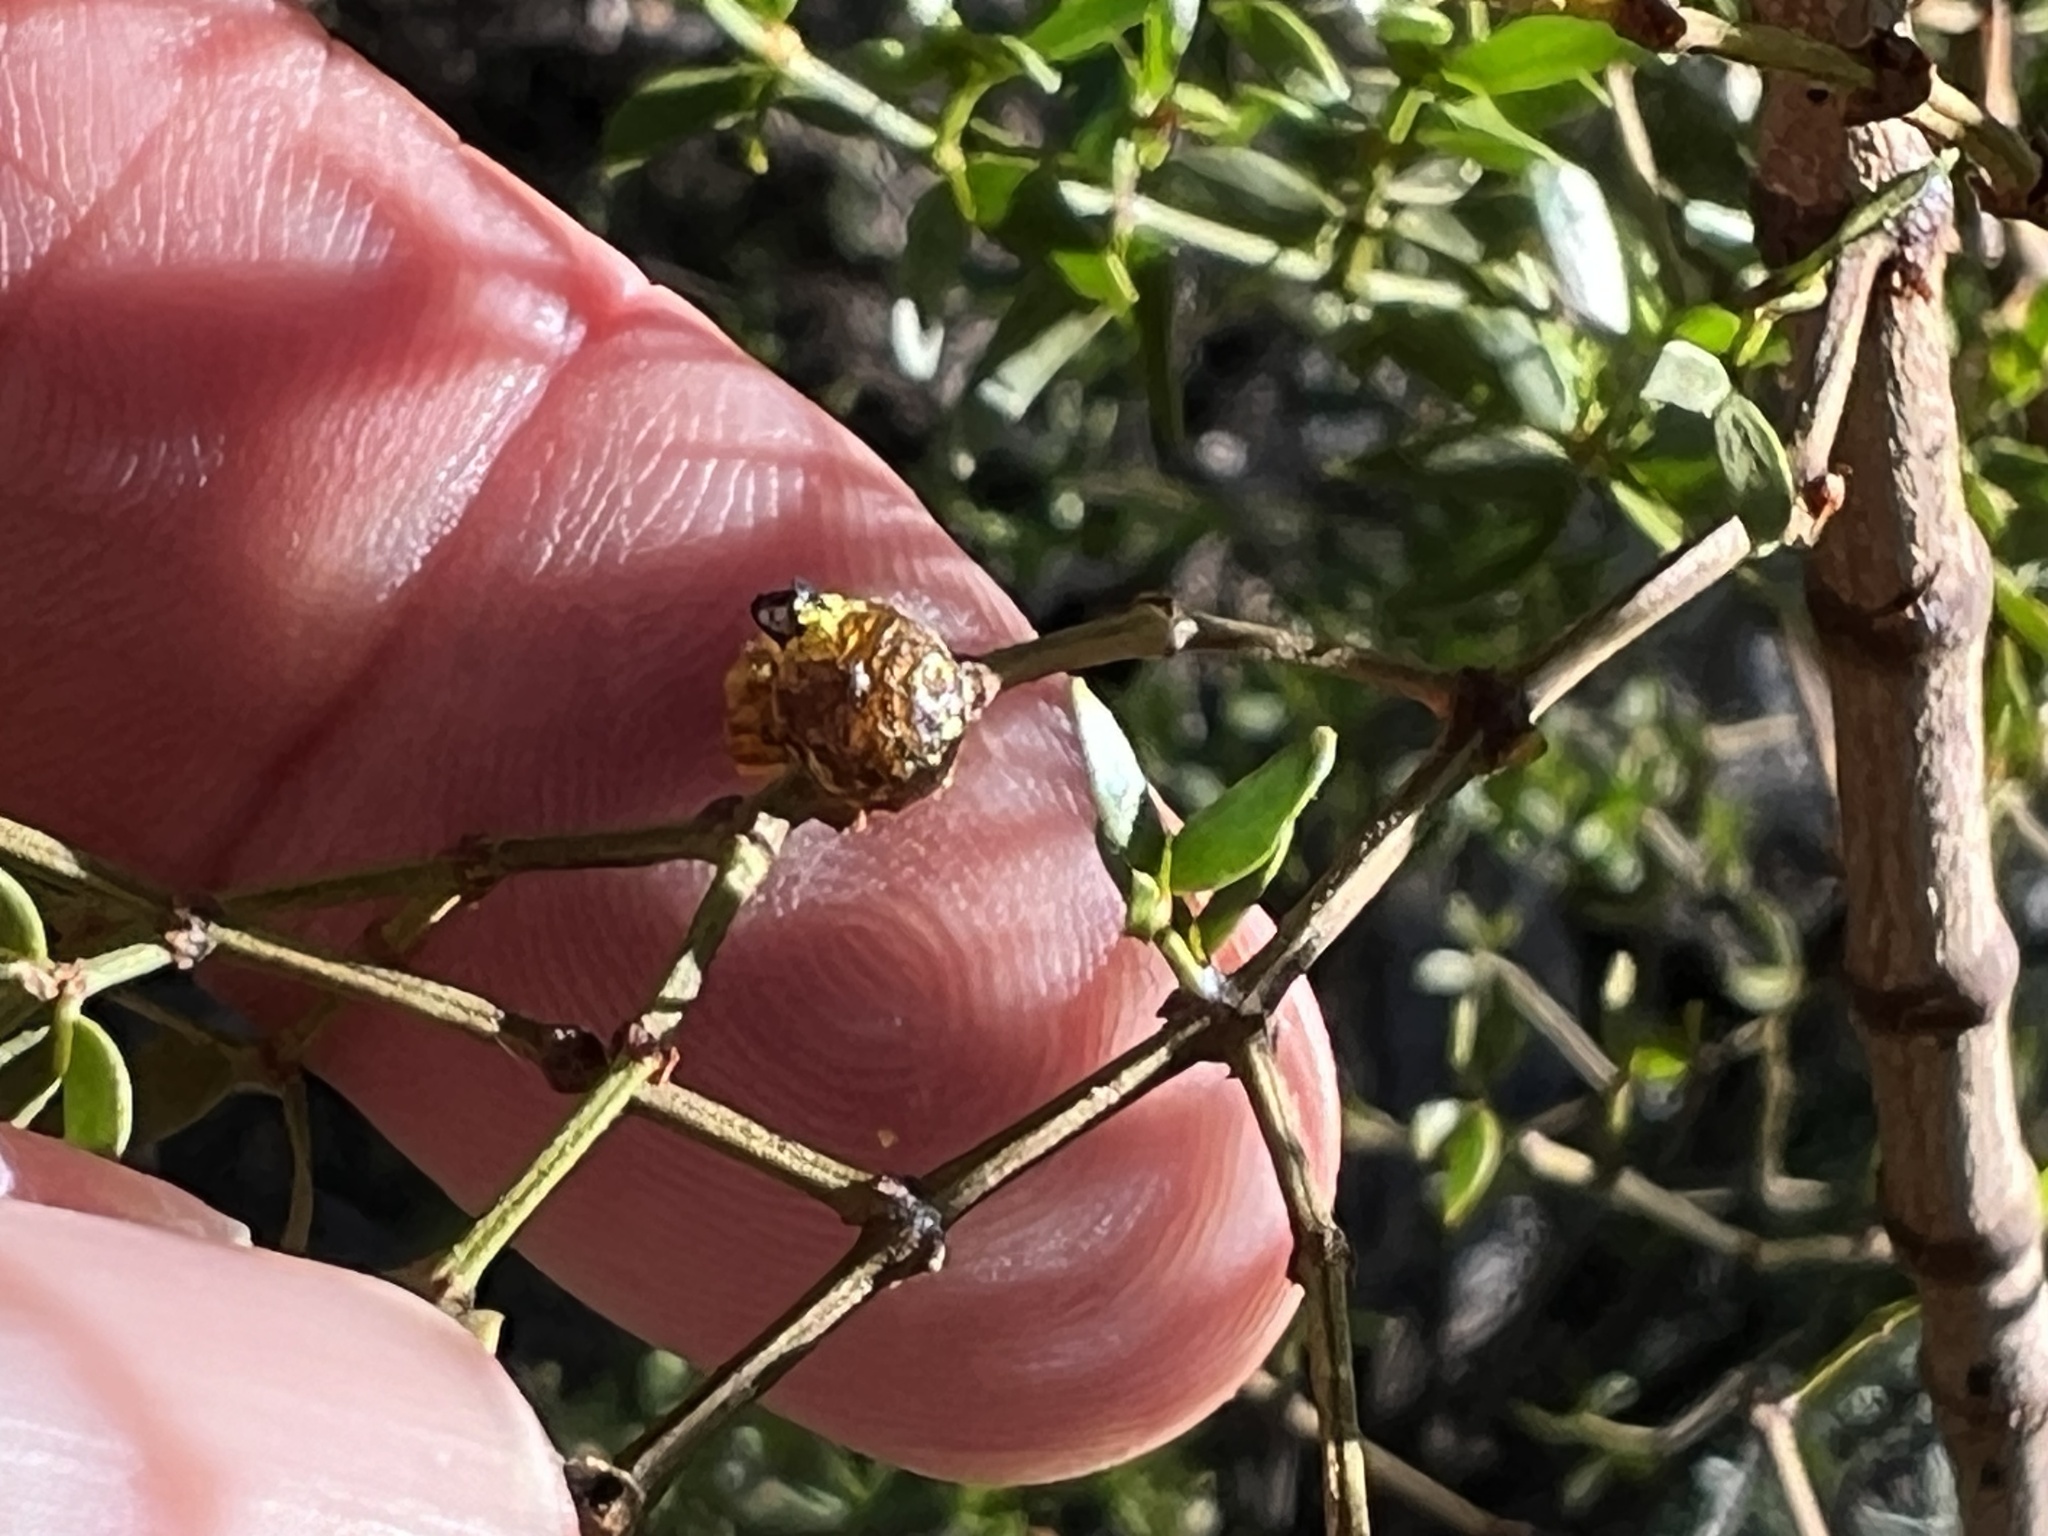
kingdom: Animalia
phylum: Arthropoda
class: Insecta
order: Diptera
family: Cecidomyiidae
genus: Asphondylia
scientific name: Asphondylia resinosa
